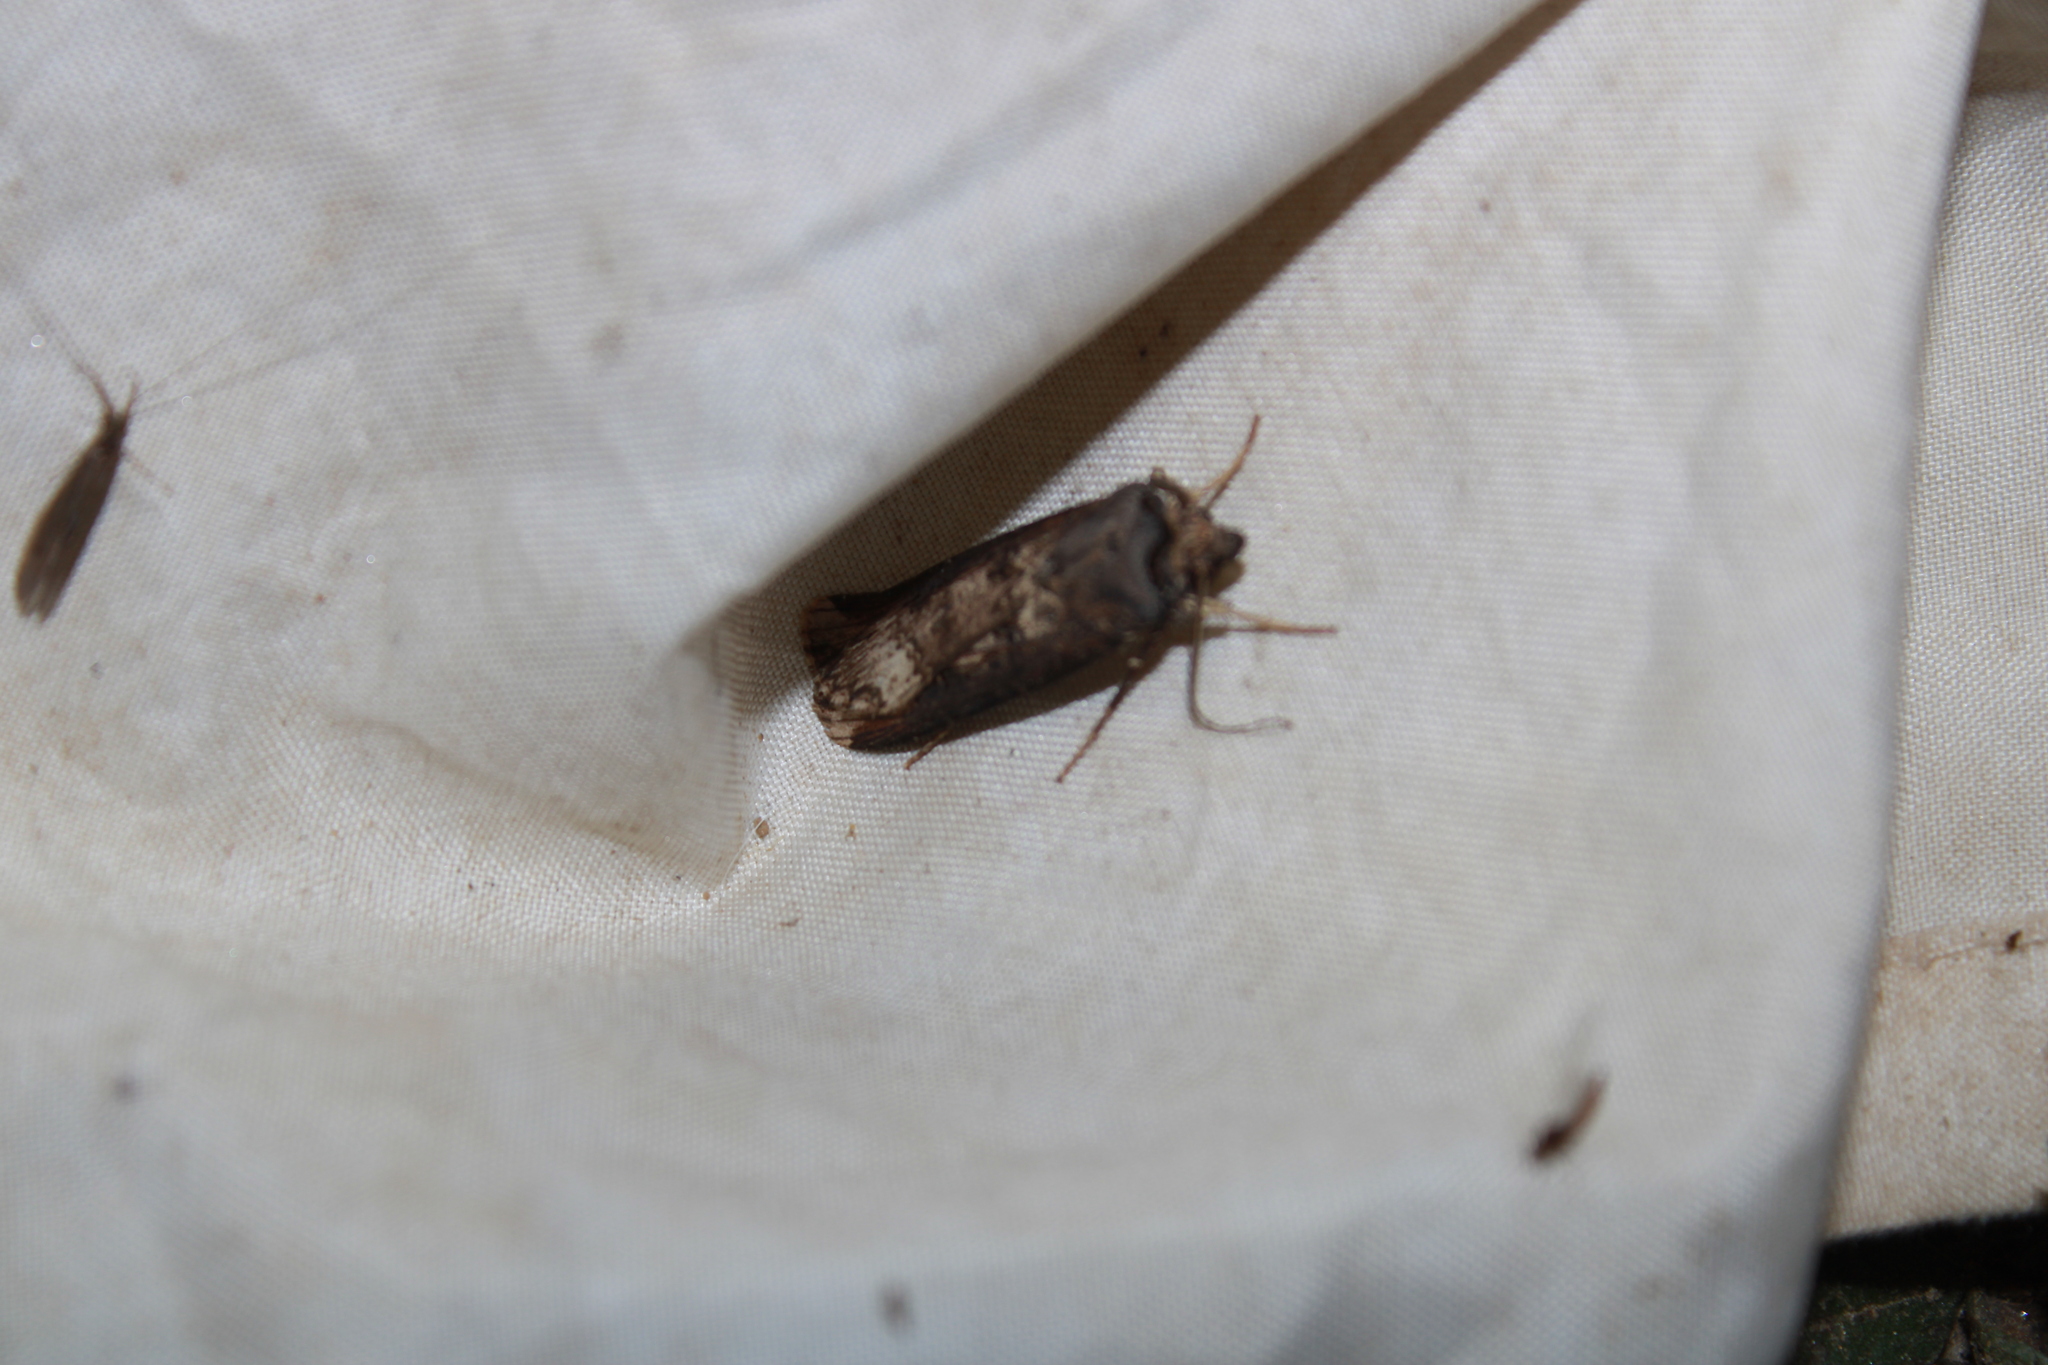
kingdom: Animalia
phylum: Arthropoda
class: Insecta
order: Lepidoptera
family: Noctuidae
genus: Agrotis
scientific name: Agrotis ipsilon
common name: Dark sword-grass
